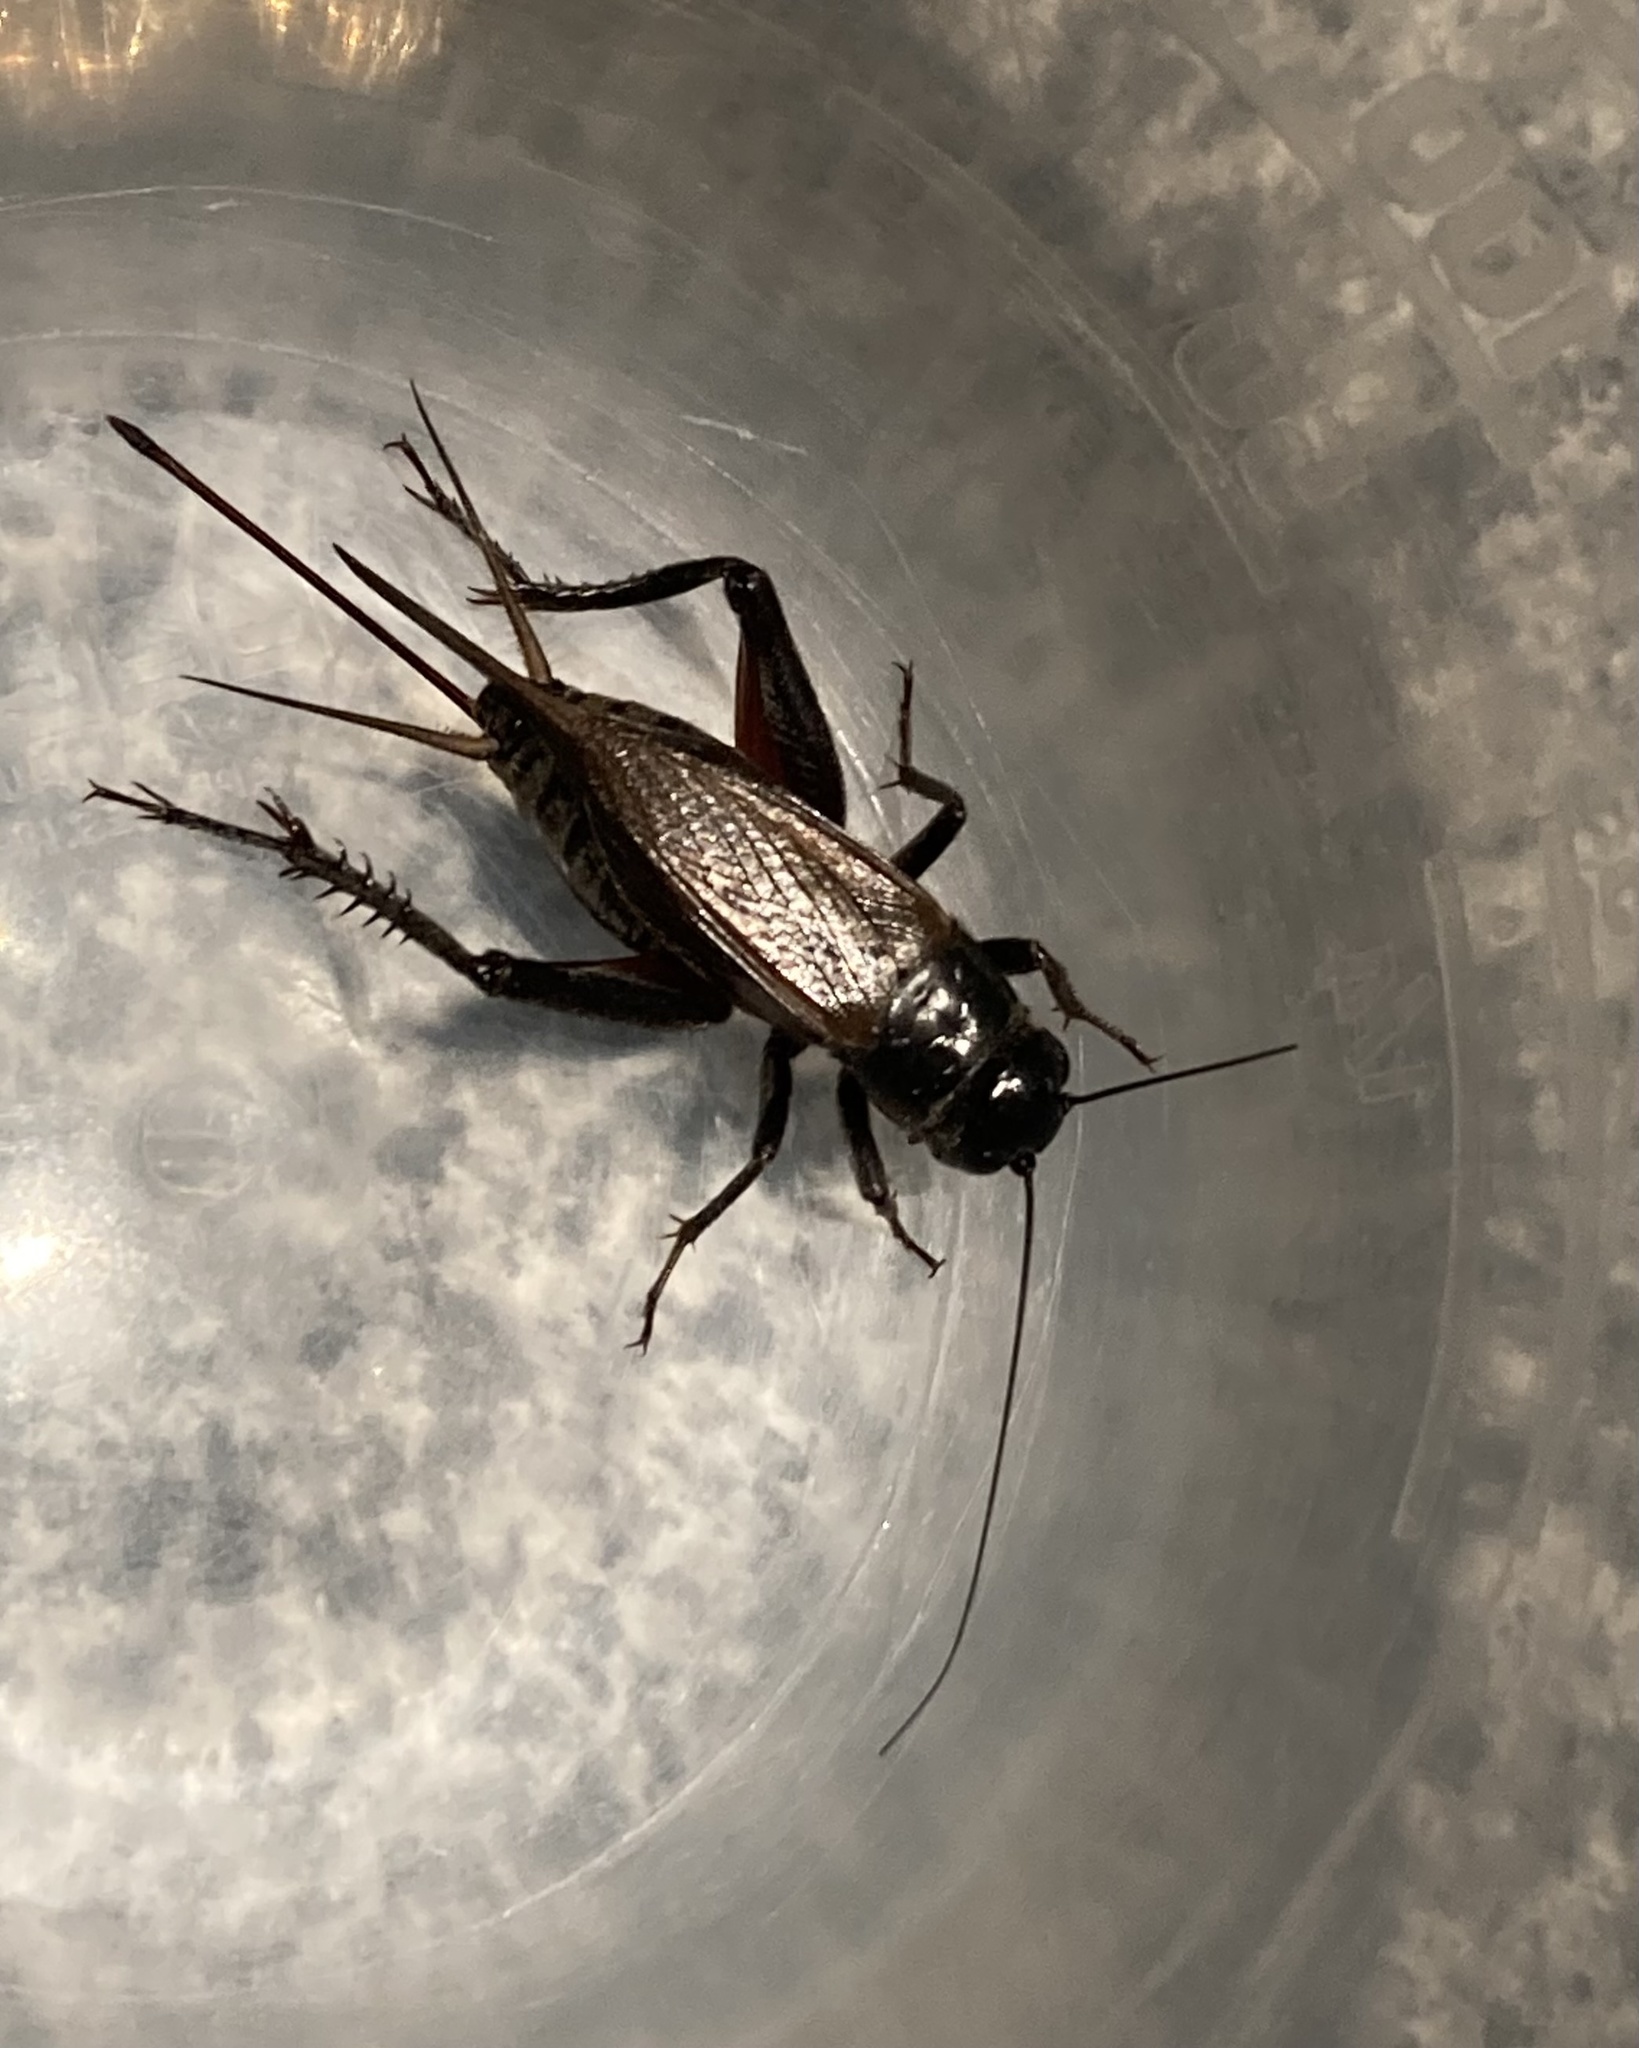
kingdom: Animalia
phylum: Arthropoda
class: Insecta
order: Orthoptera
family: Gryllidae
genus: Teleogryllus
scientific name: Teleogryllus commodus
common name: Black field cricket
